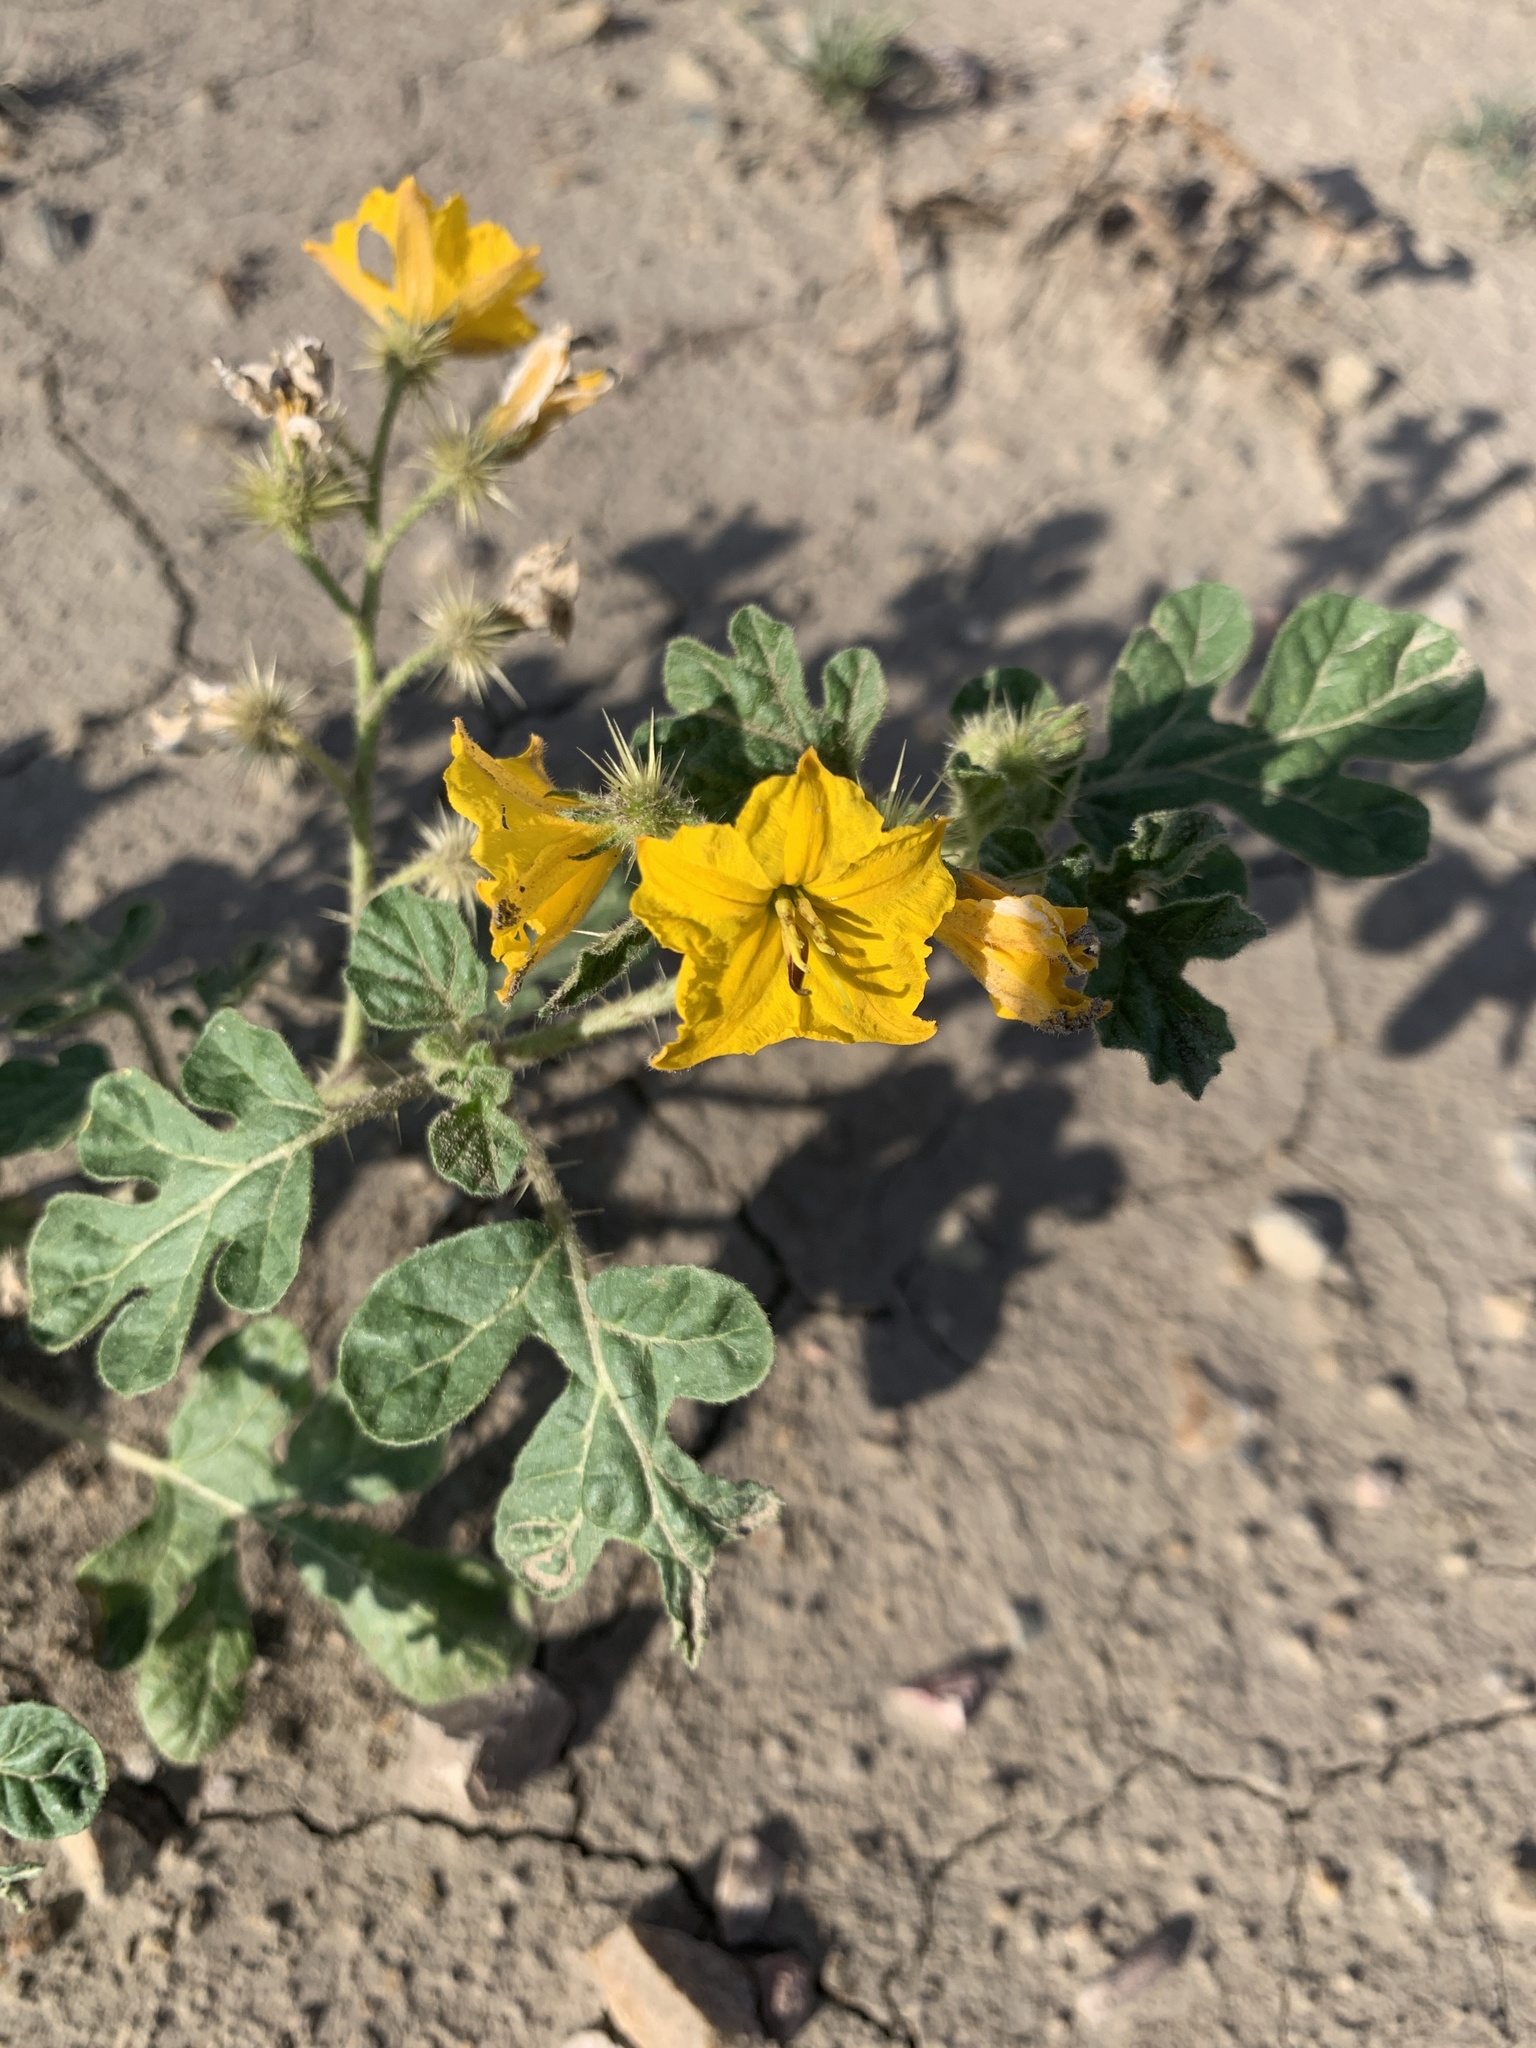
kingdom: Plantae
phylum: Tracheophyta
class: Magnoliopsida
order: Solanales
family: Solanaceae
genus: Solanum
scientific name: Solanum angustifolium
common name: Buffalobur nightshade
